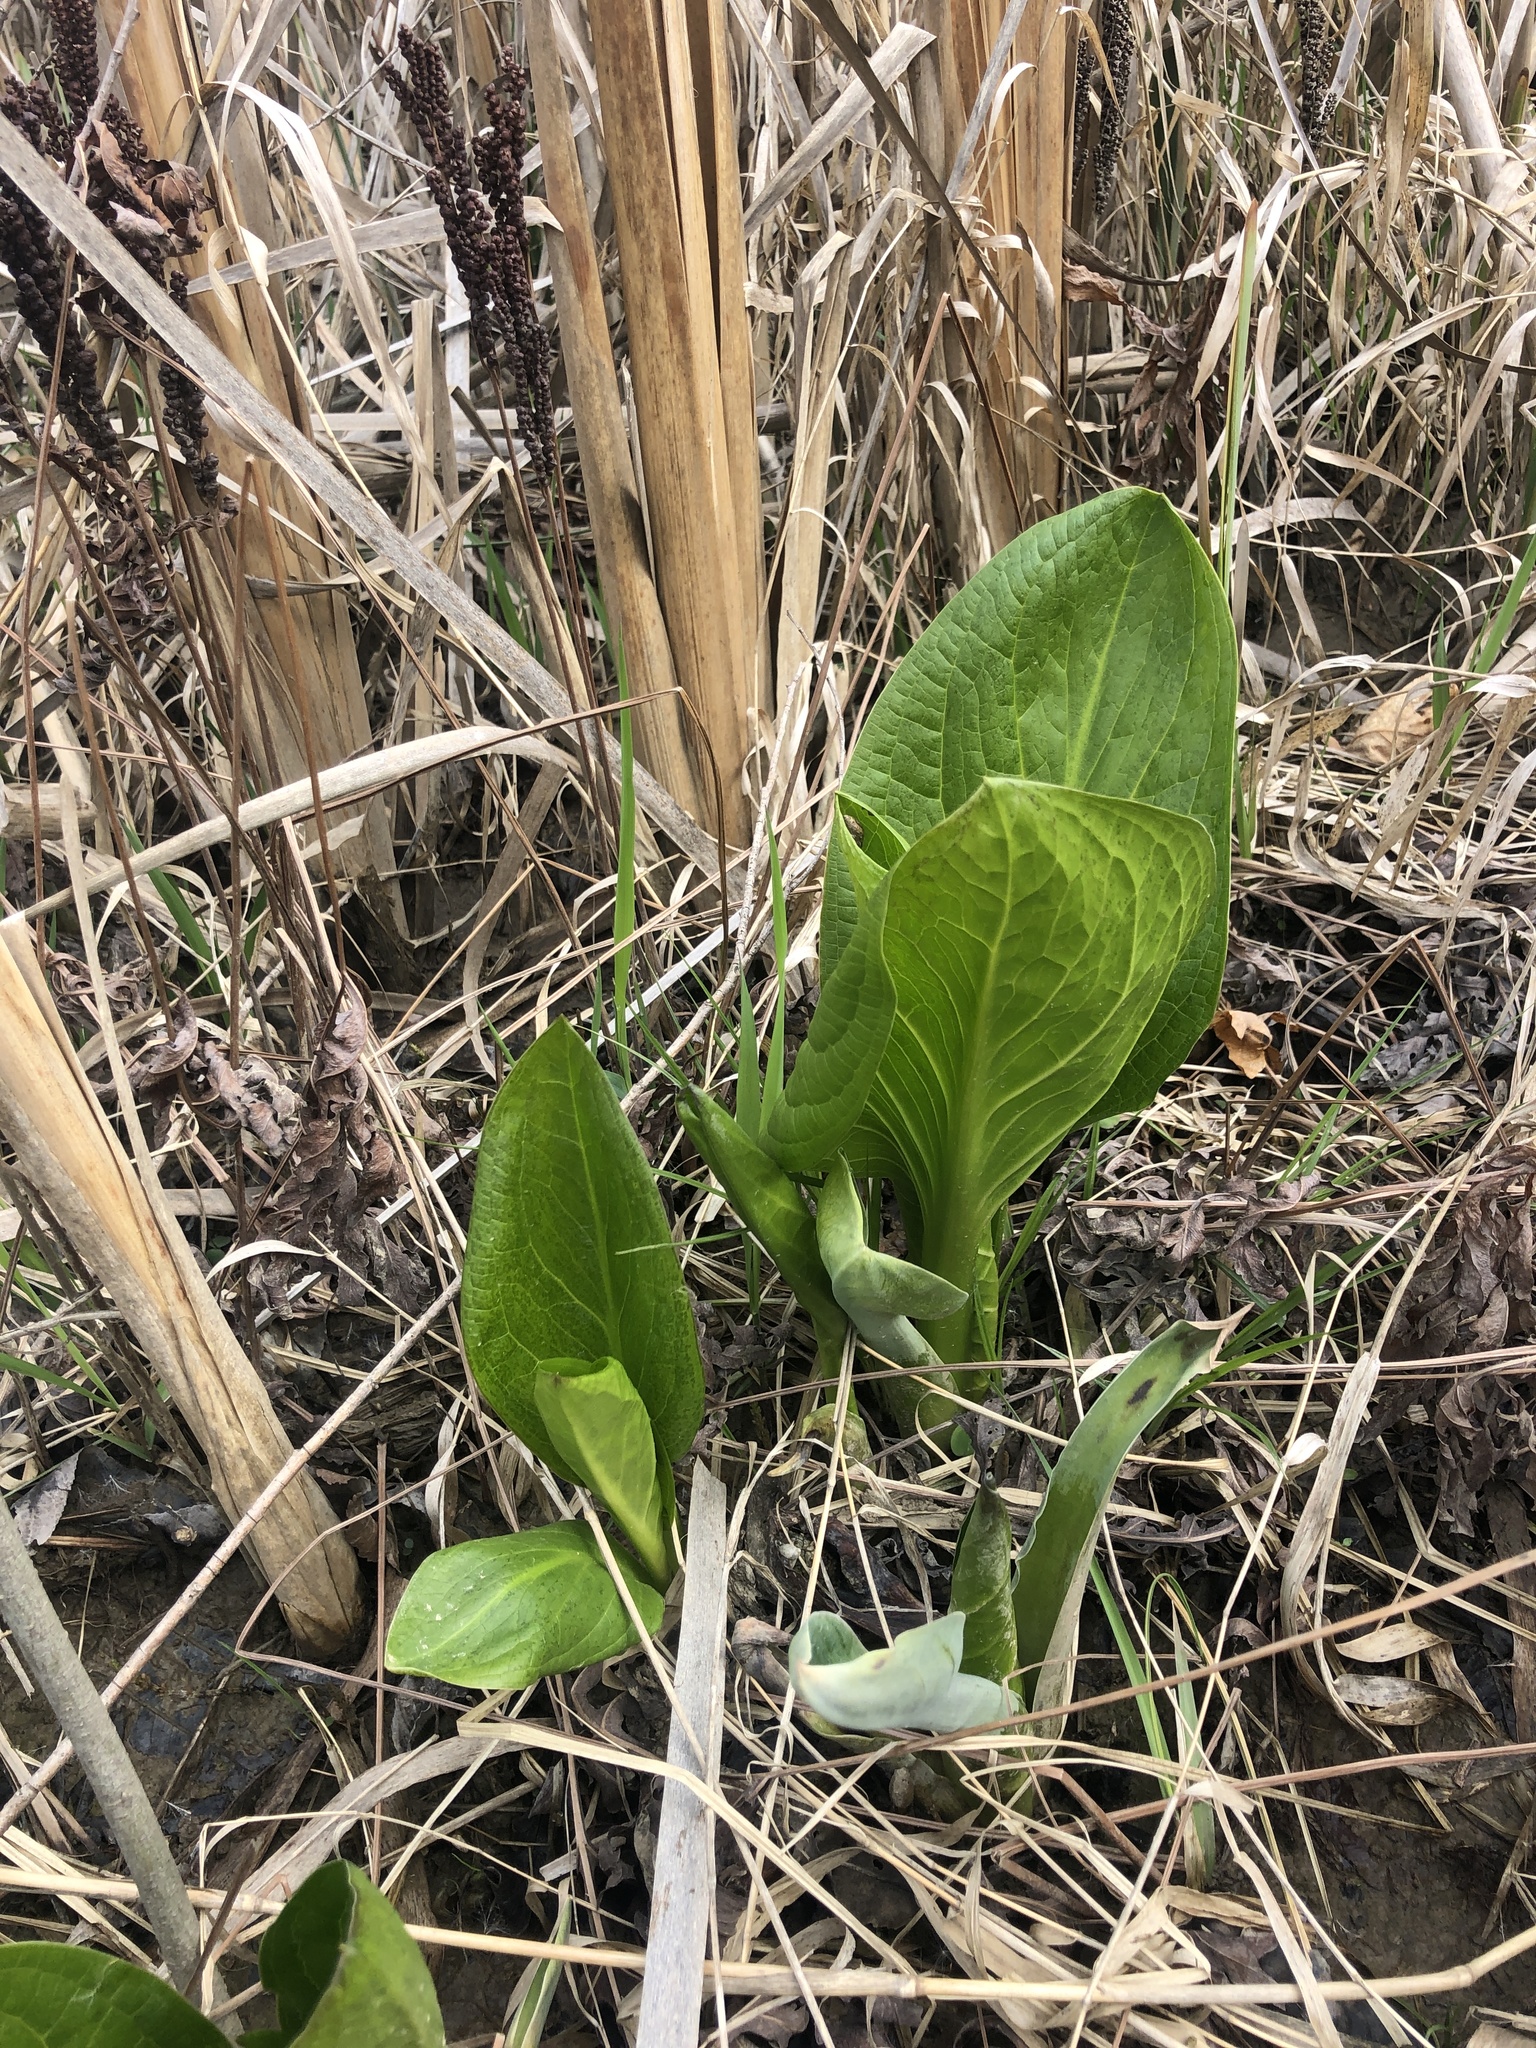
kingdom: Plantae
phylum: Tracheophyta
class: Liliopsida
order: Alismatales
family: Araceae
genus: Symplocarpus
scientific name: Symplocarpus foetidus
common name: Eastern skunk cabbage
